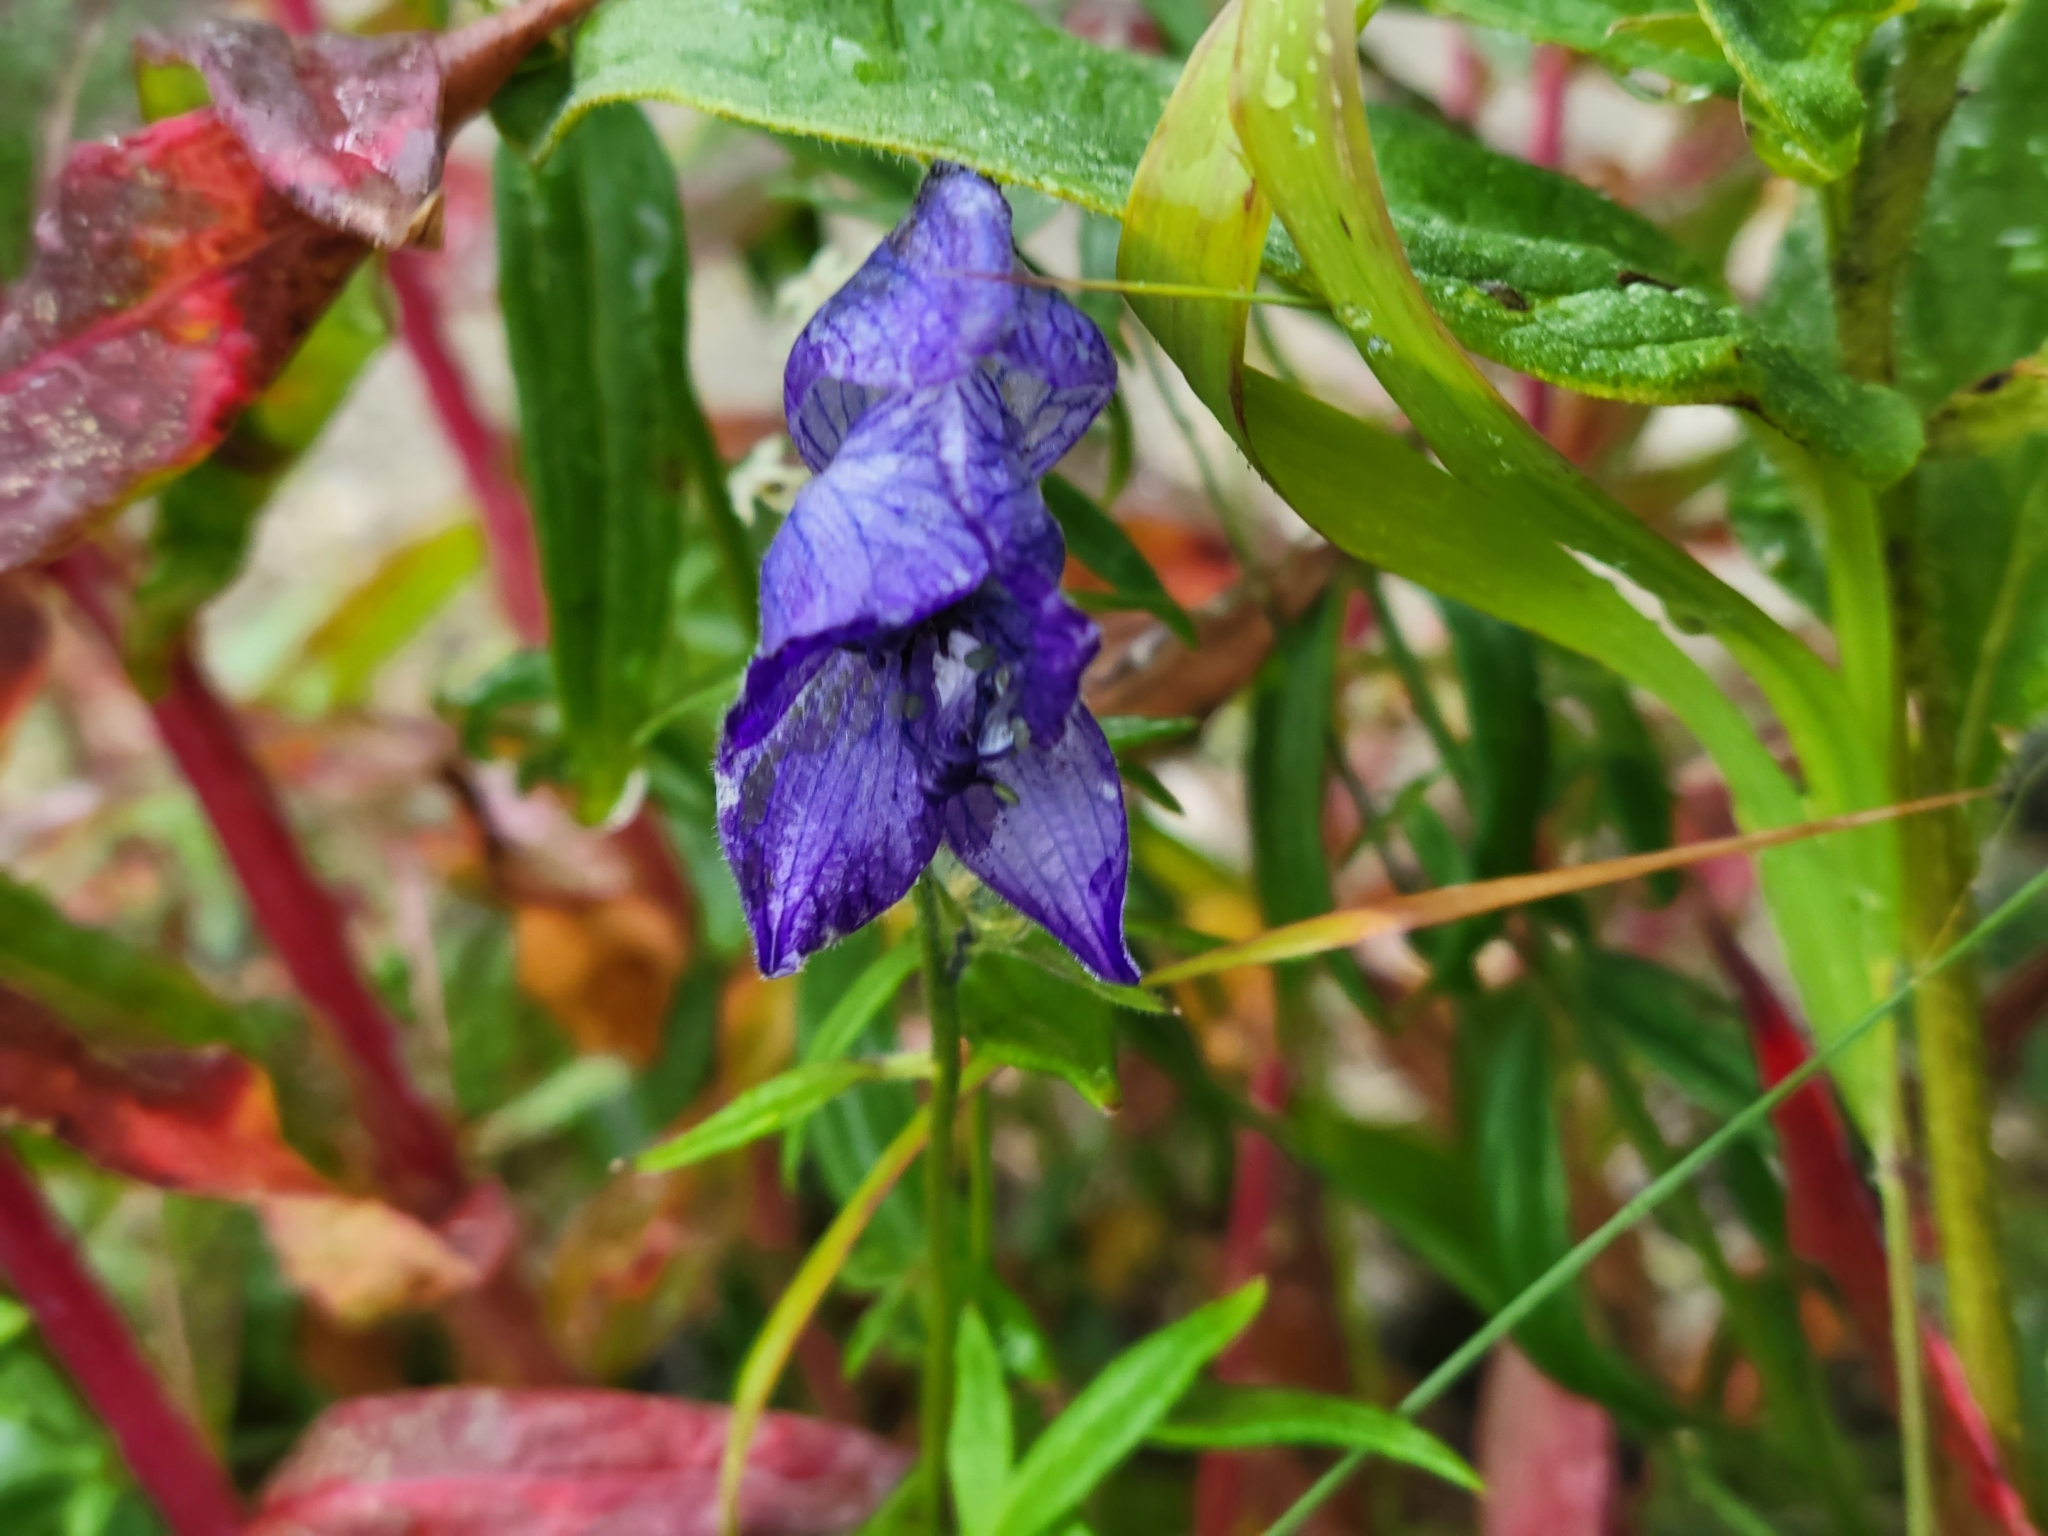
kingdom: Plantae
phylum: Tracheophyta
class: Magnoliopsida
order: Ranunculales
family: Ranunculaceae
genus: Aconitum
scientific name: Aconitum delphiniifolium
